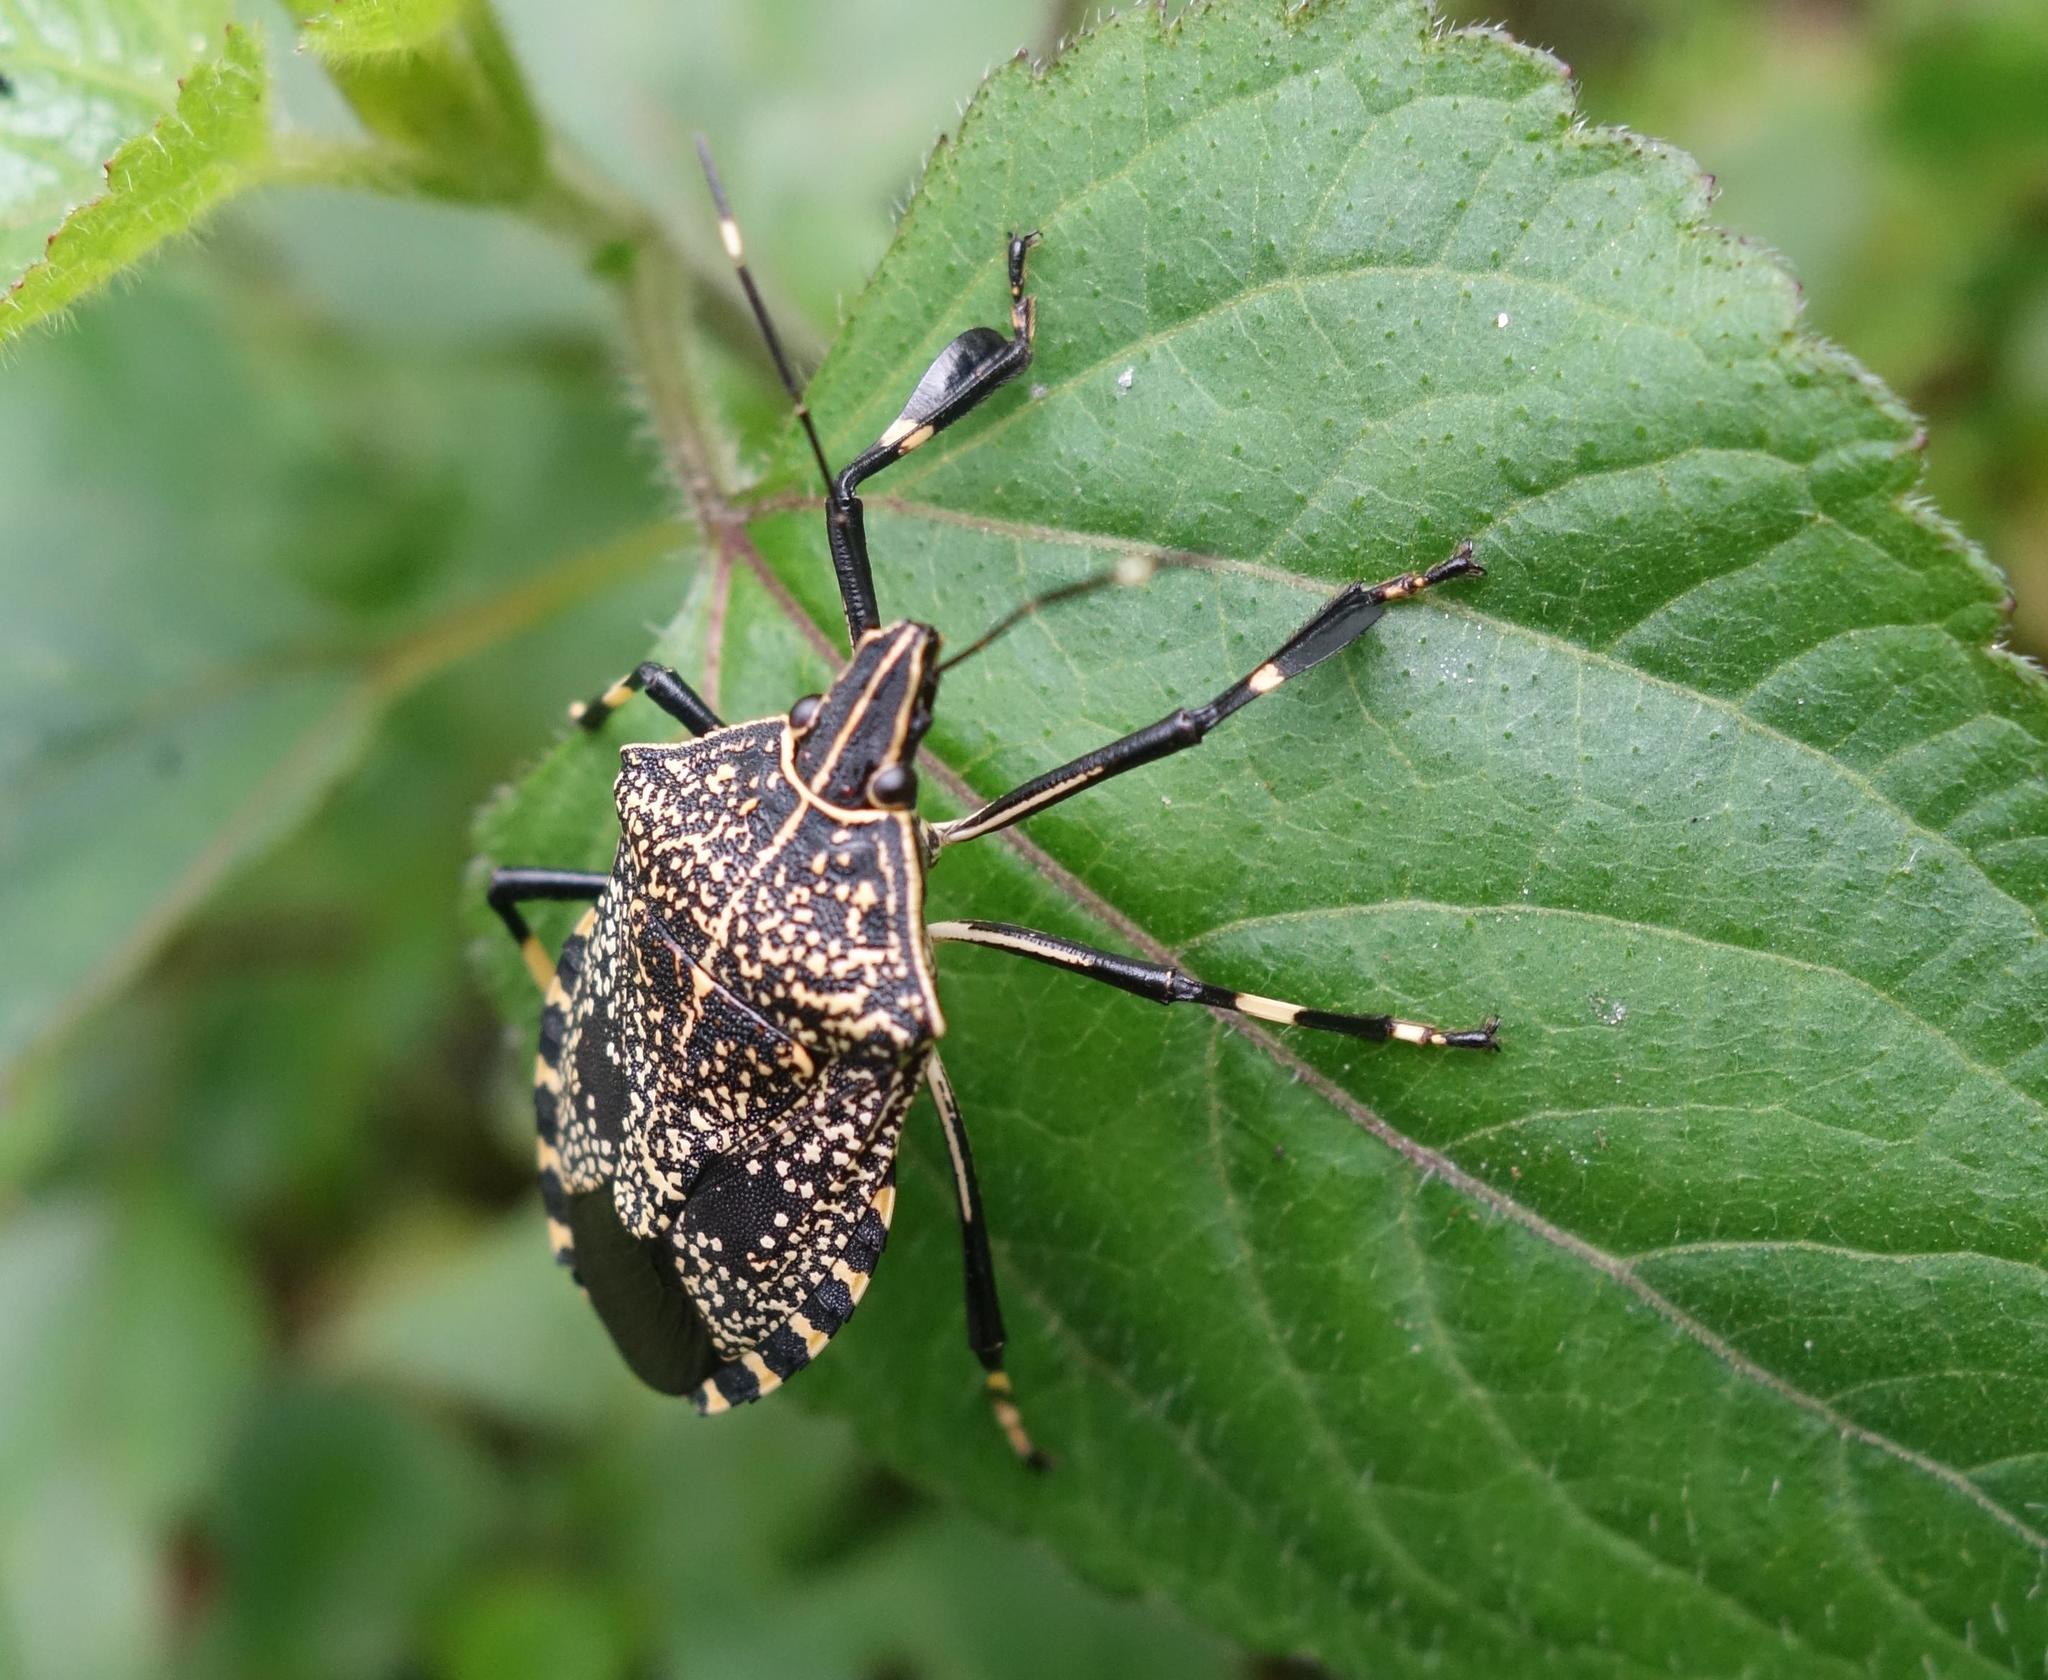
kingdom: Animalia
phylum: Arthropoda
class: Insecta
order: Hemiptera
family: Pentatomidae
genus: Erthesina
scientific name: Erthesina fullo
